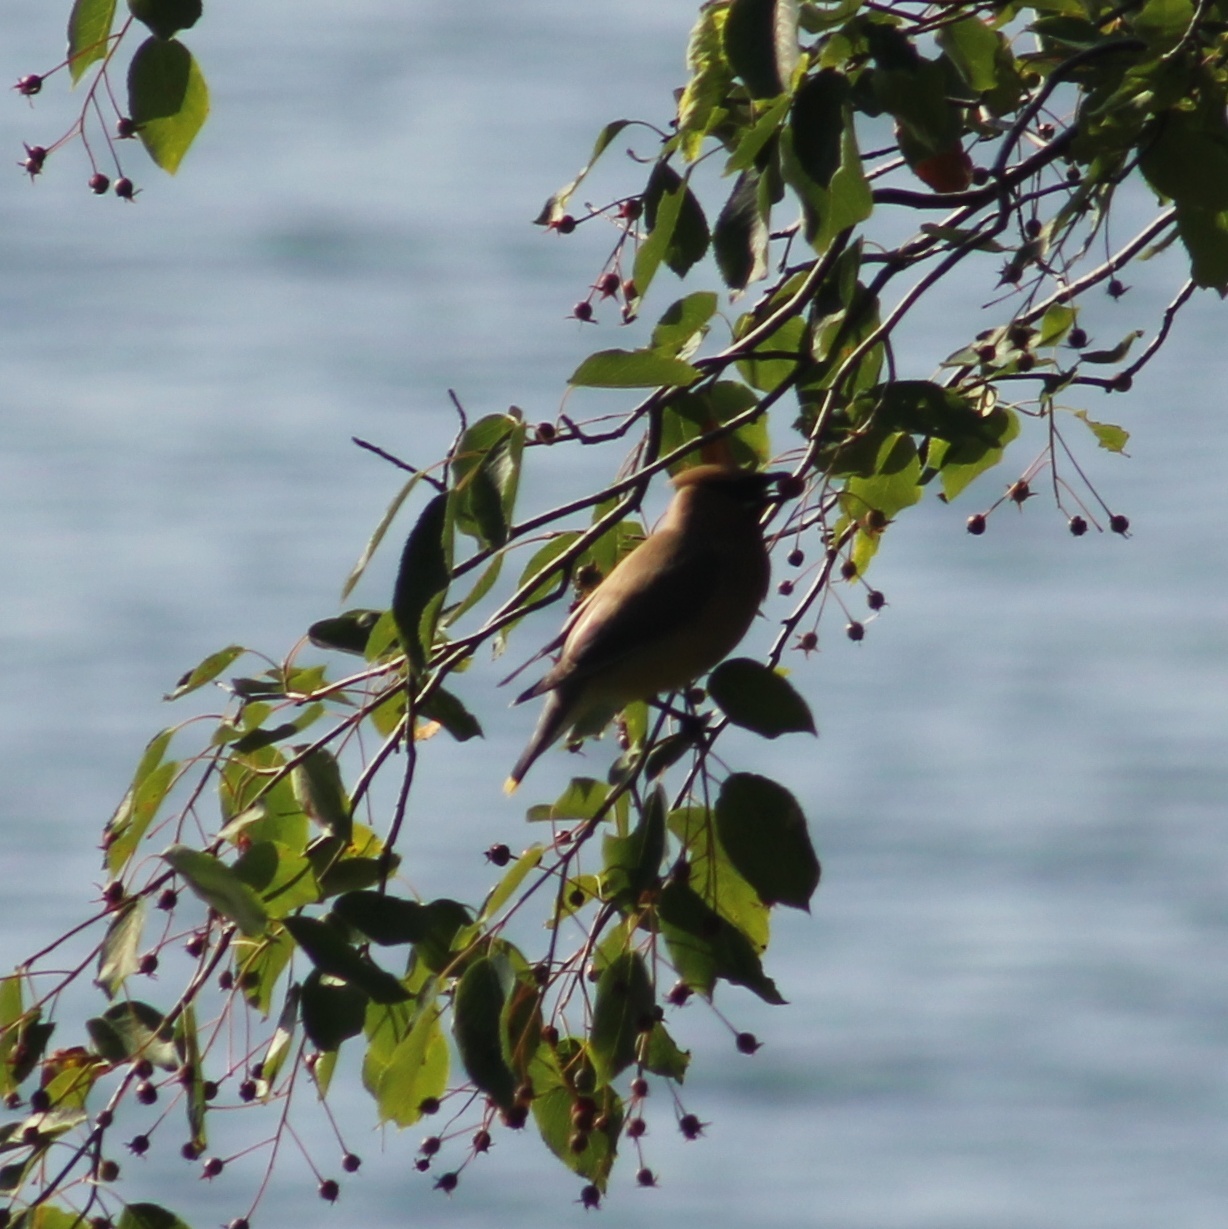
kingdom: Animalia
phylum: Chordata
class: Aves
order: Passeriformes
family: Bombycillidae
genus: Bombycilla
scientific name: Bombycilla cedrorum
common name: Cedar waxwing
